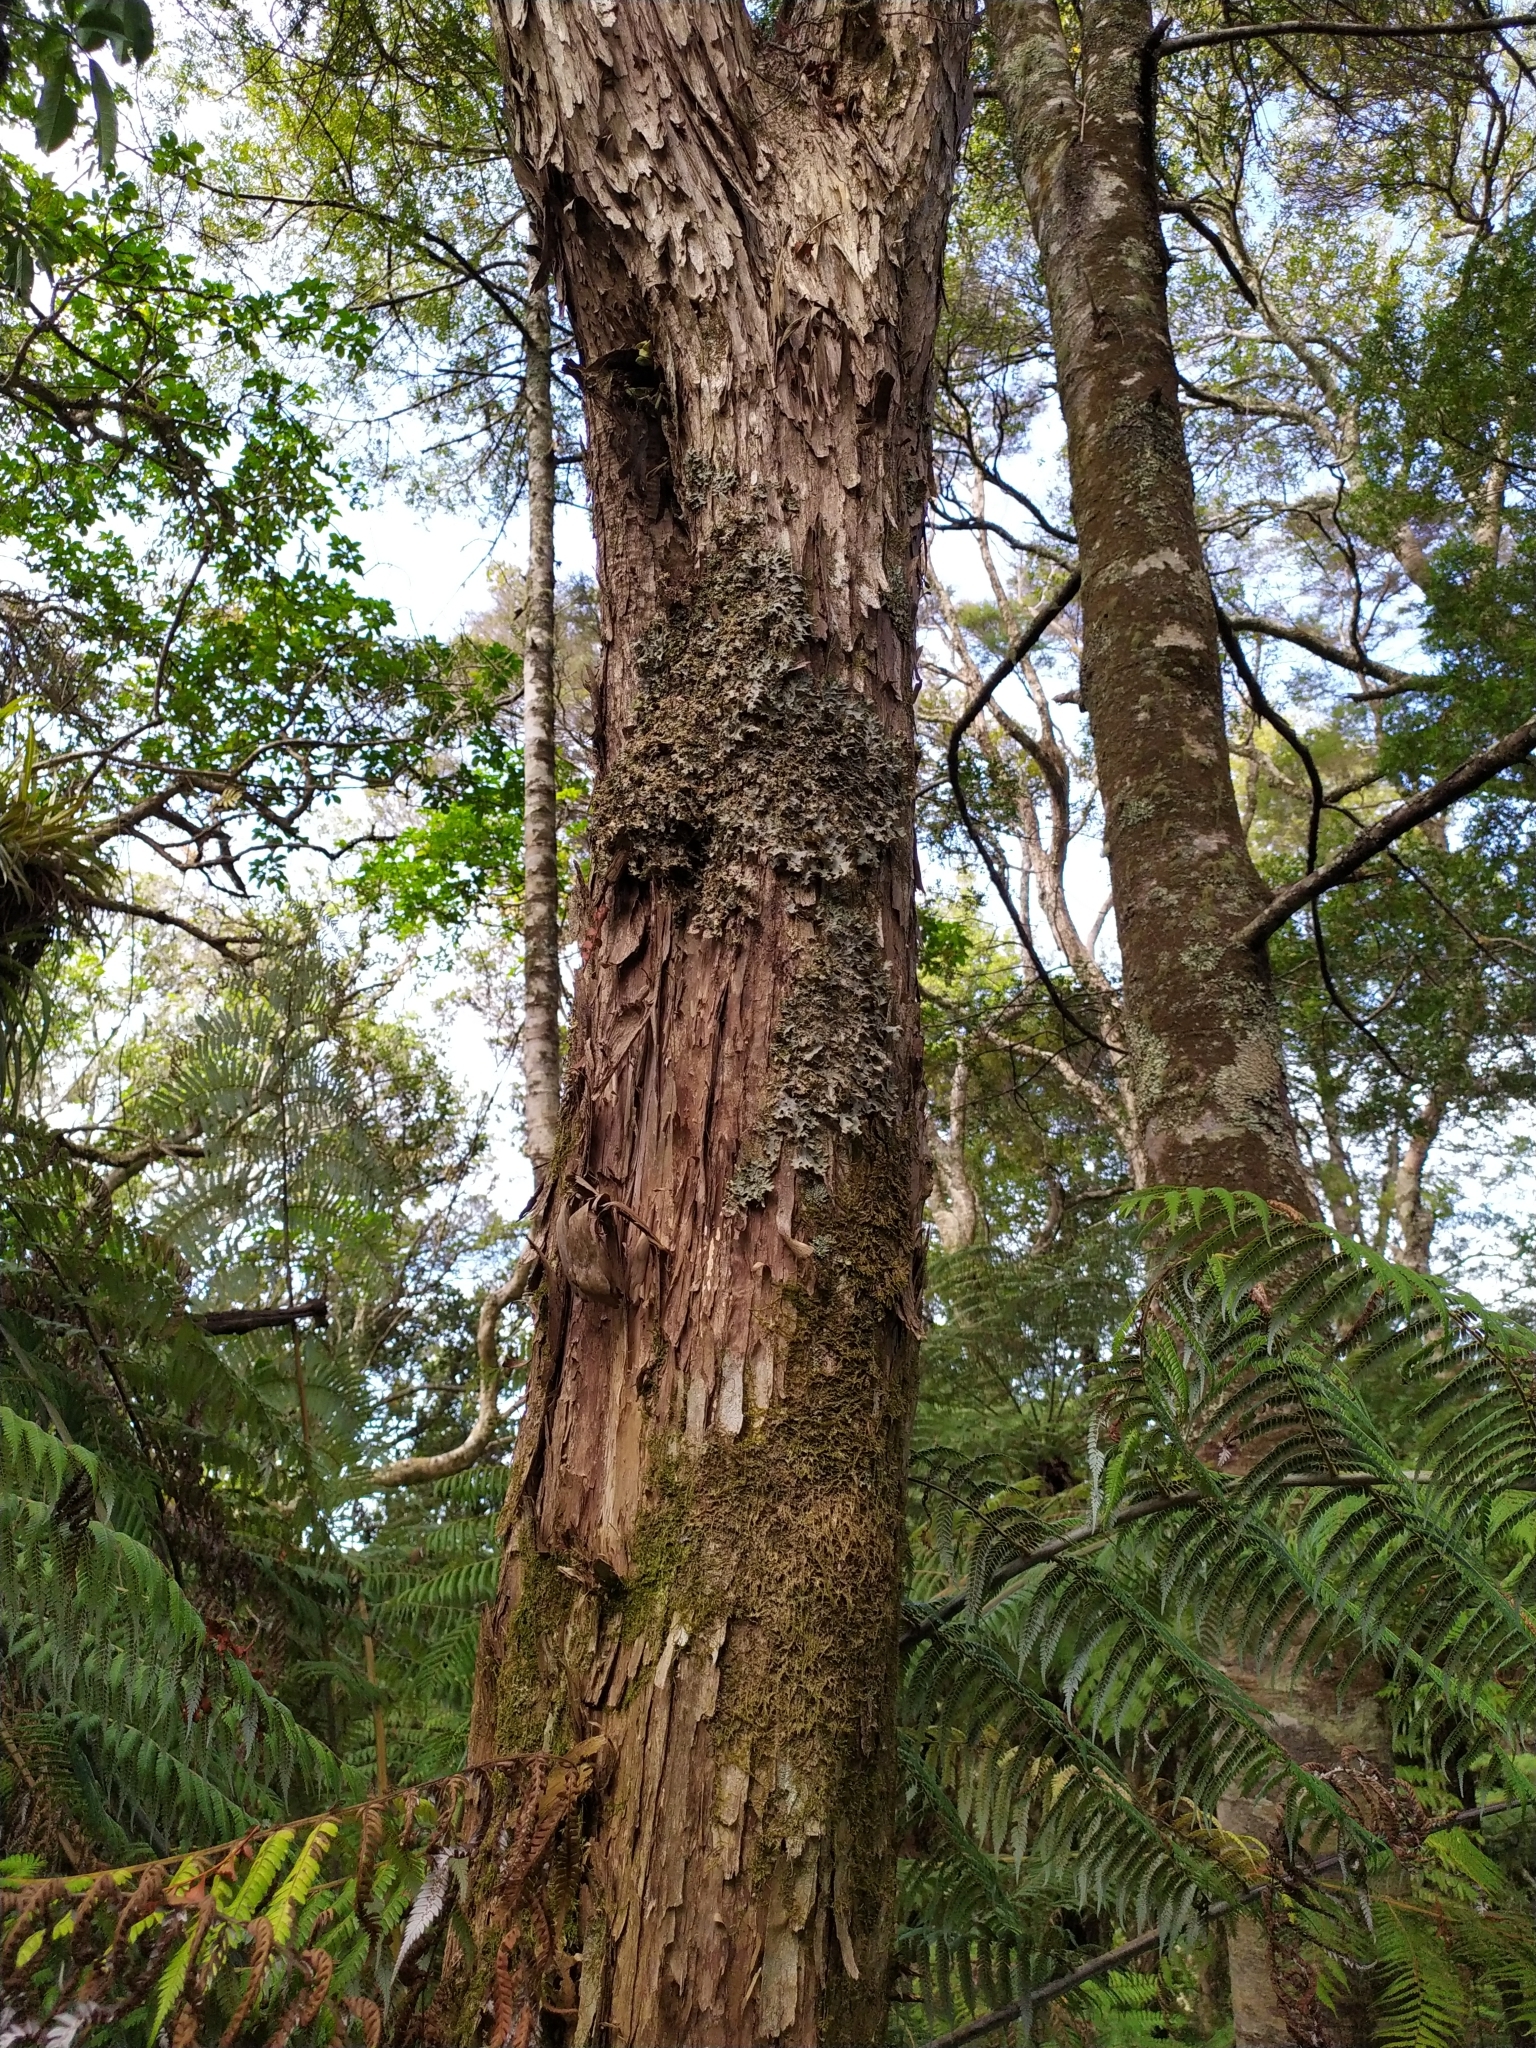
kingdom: Fungi
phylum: Ascomycota
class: Lecanoromycetes
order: Peltigerales
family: Lobariaceae
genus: Sticta
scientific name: Sticta subcaperata
